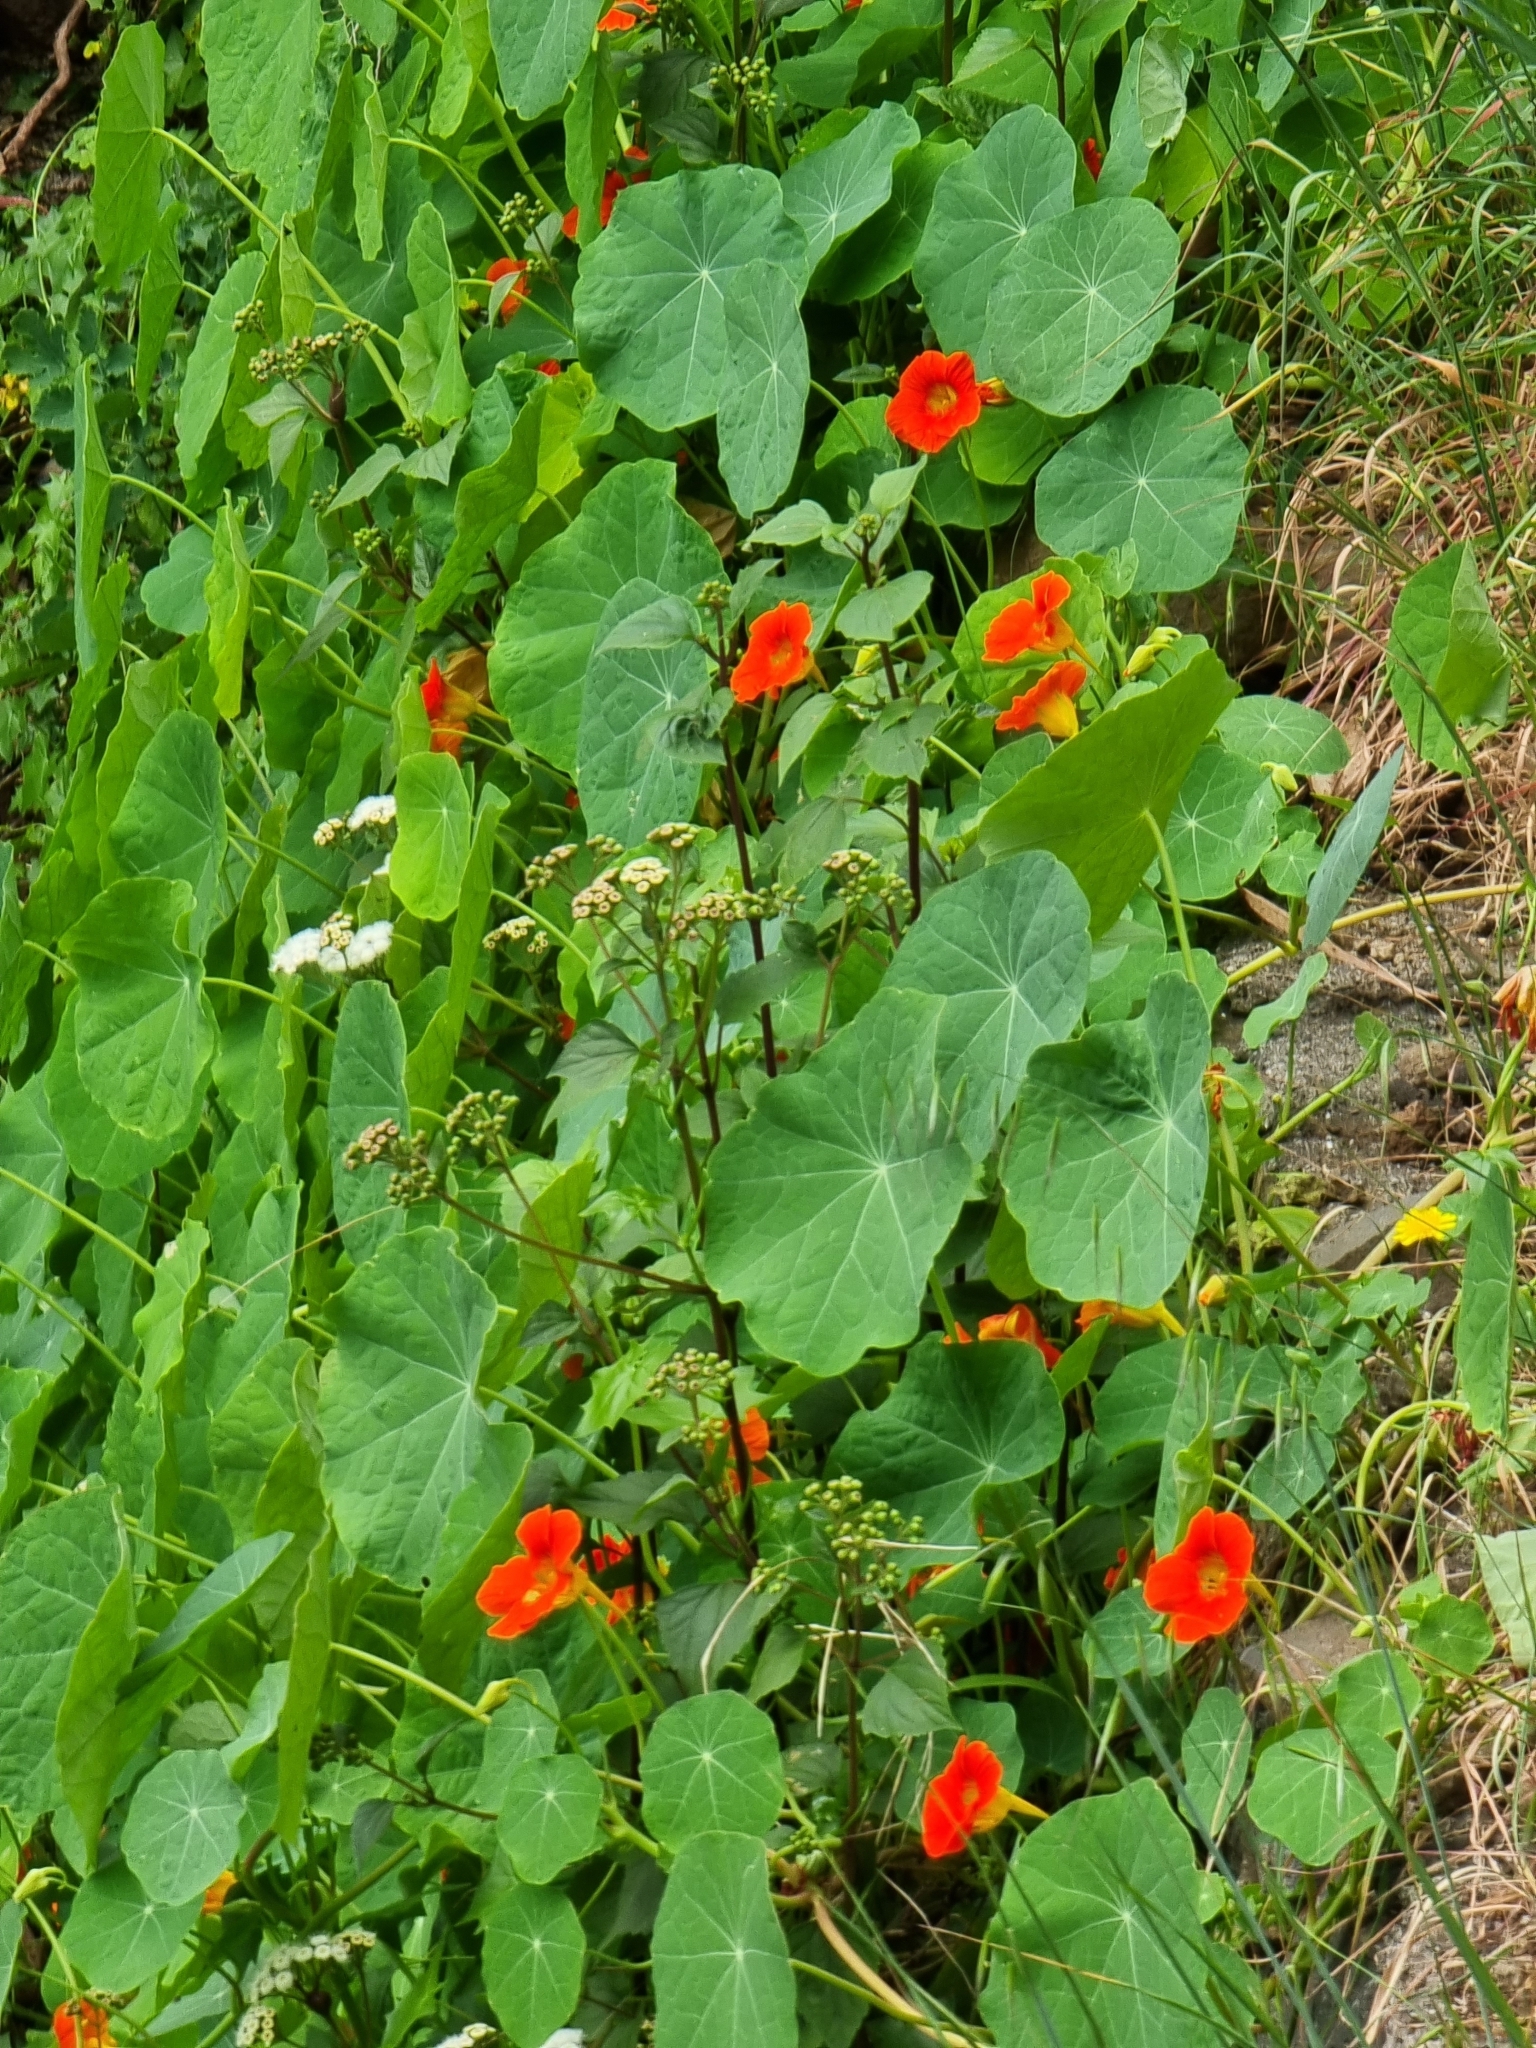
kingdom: Plantae
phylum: Tracheophyta
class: Magnoliopsida
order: Brassicales
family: Tropaeolaceae
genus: Tropaeolum
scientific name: Tropaeolum majus
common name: Nasturtium
